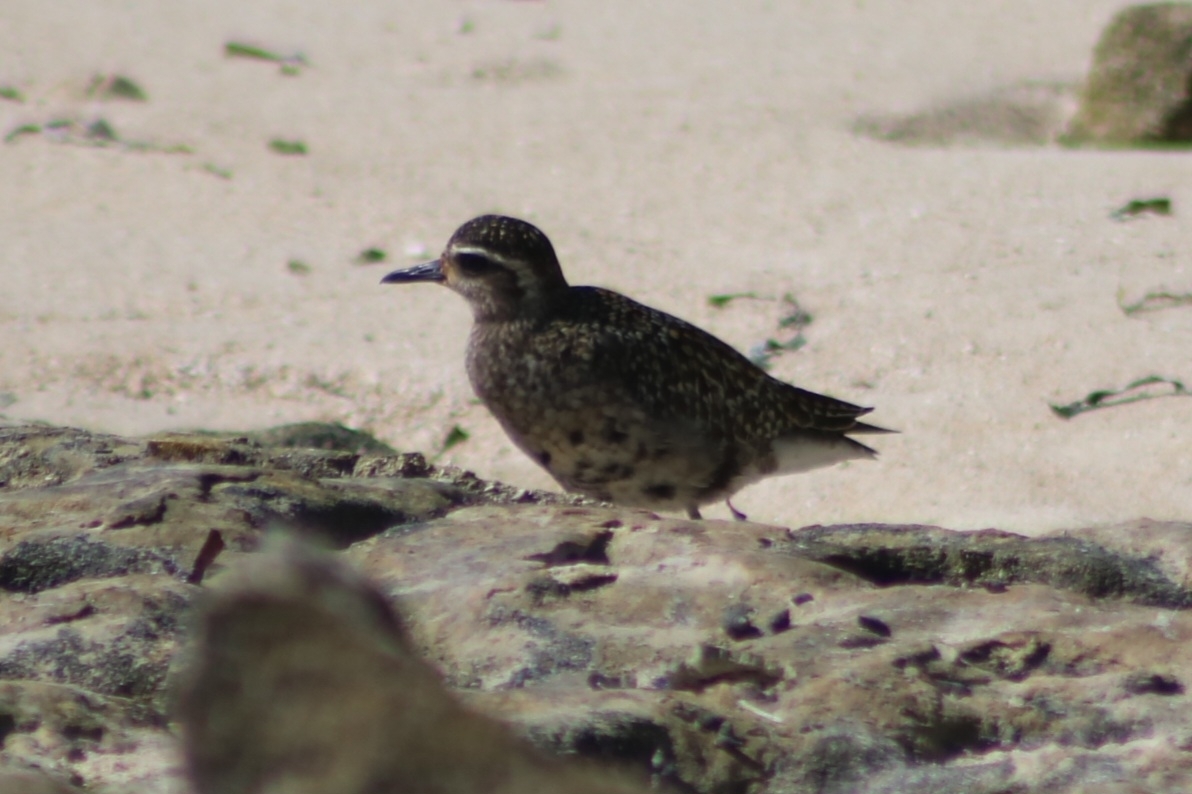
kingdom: Animalia
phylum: Chordata
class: Aves
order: Charadriiformes
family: Charadriidae
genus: Pluvialis
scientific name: Pluvialis fulva
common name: Pacific golden plover
